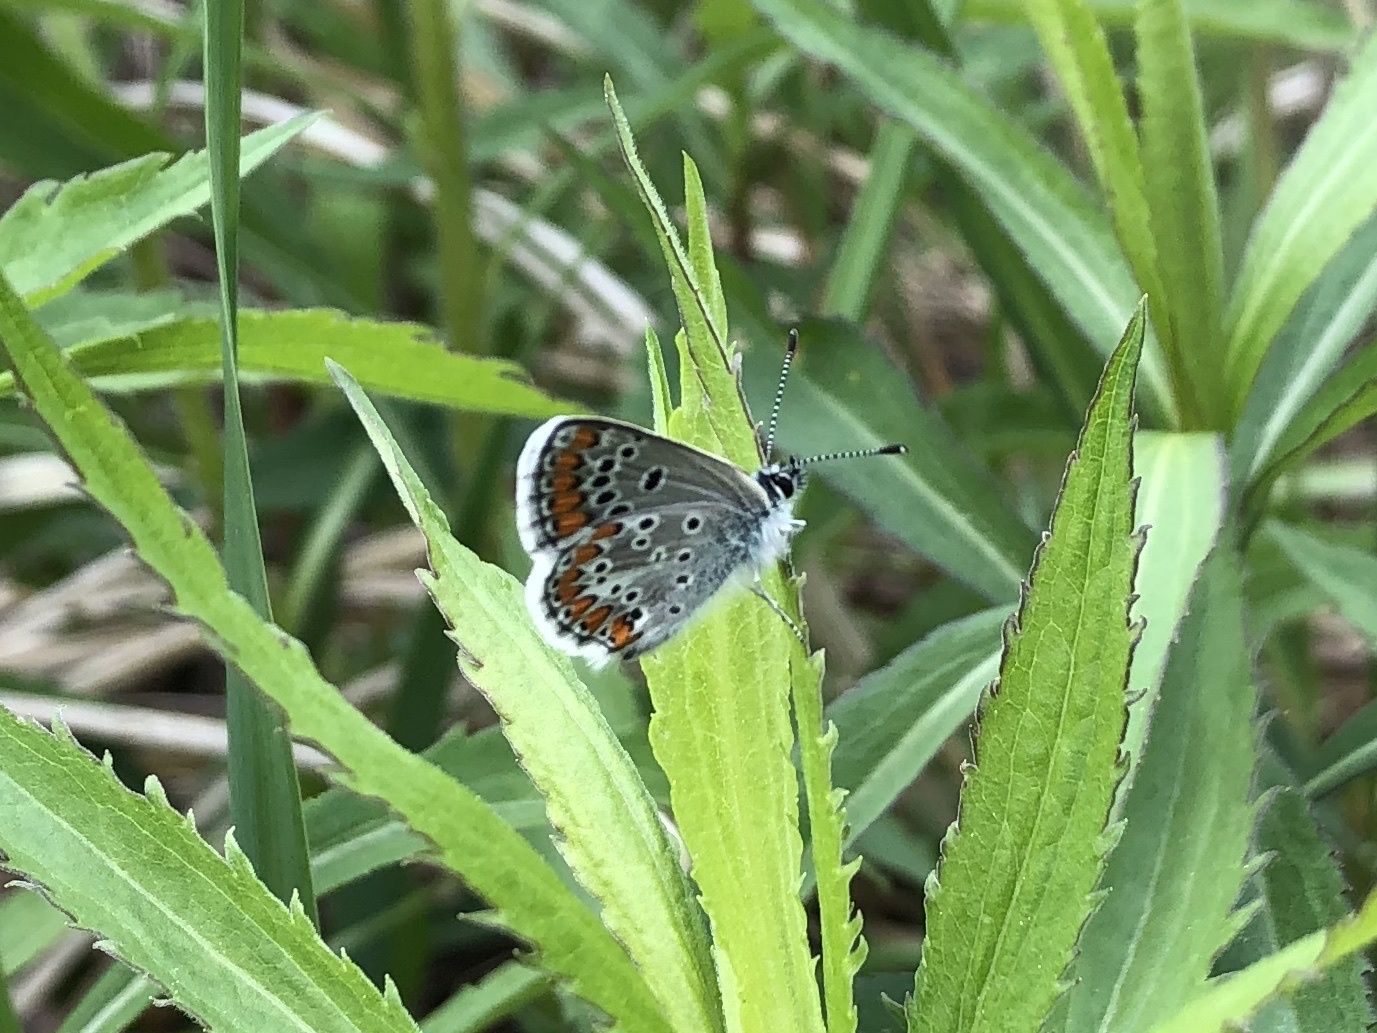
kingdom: Animalia
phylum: Arthropoda
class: Insecta
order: Lepidoptera
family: Lycaenidae
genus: Aricia
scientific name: Aricia agestis
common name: Brown argus
